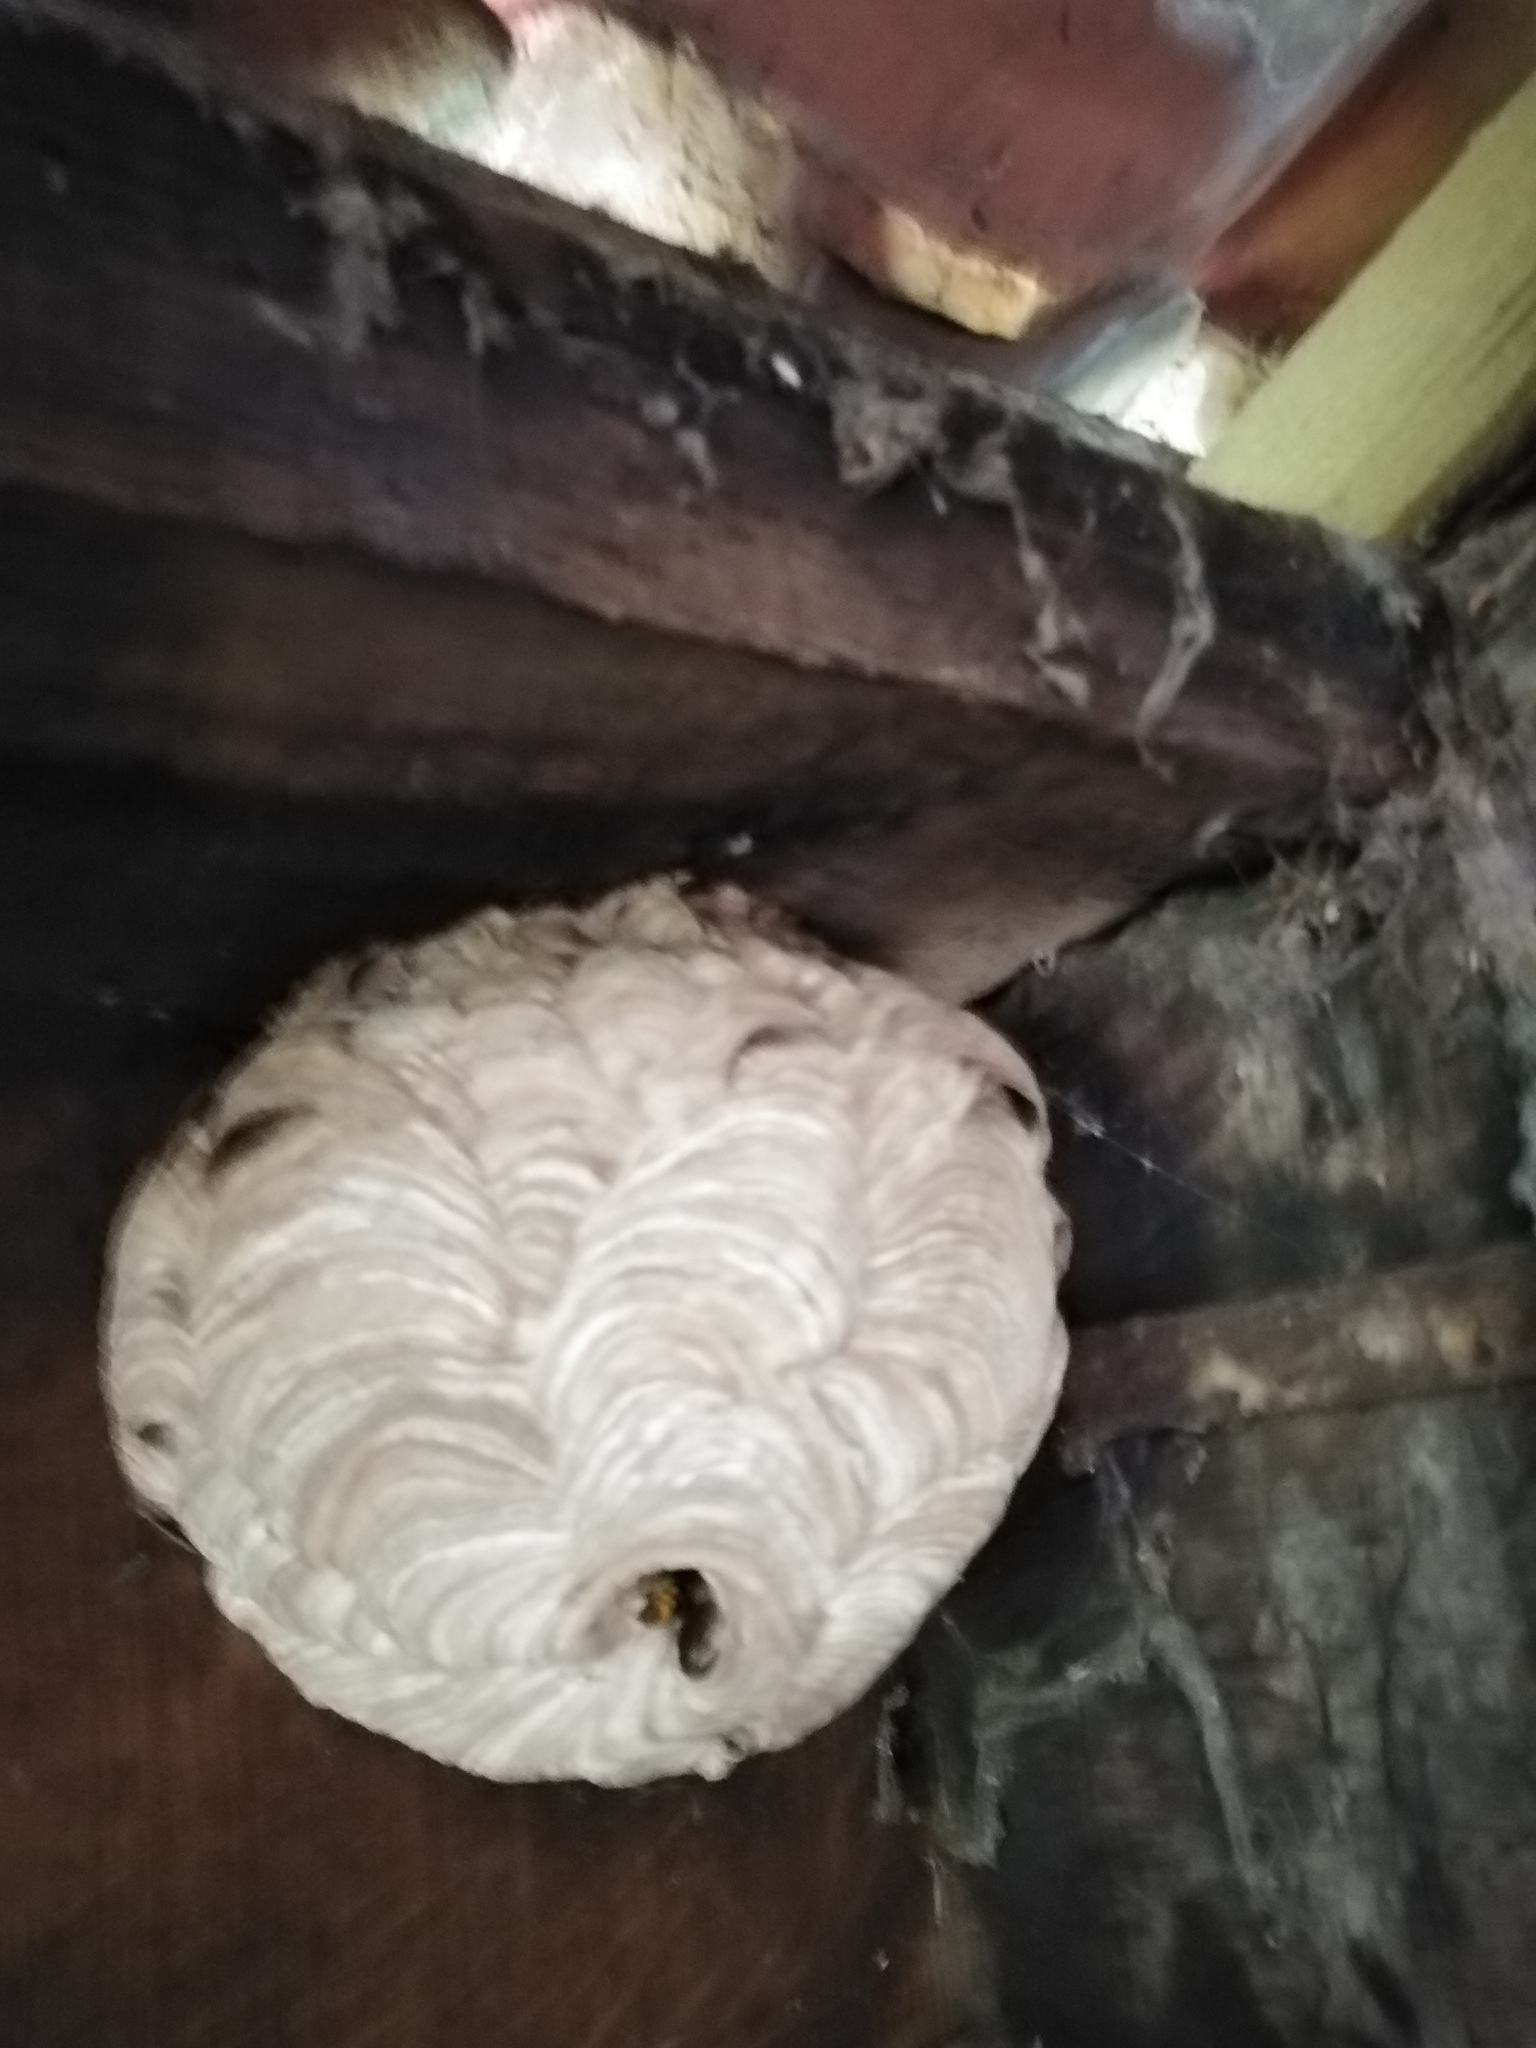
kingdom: Animalia
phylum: Arthropoda
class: Insecta
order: Hymenoptera
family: Vespidae
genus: Vespa
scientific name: Vespa velutina
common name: Asian hornet
